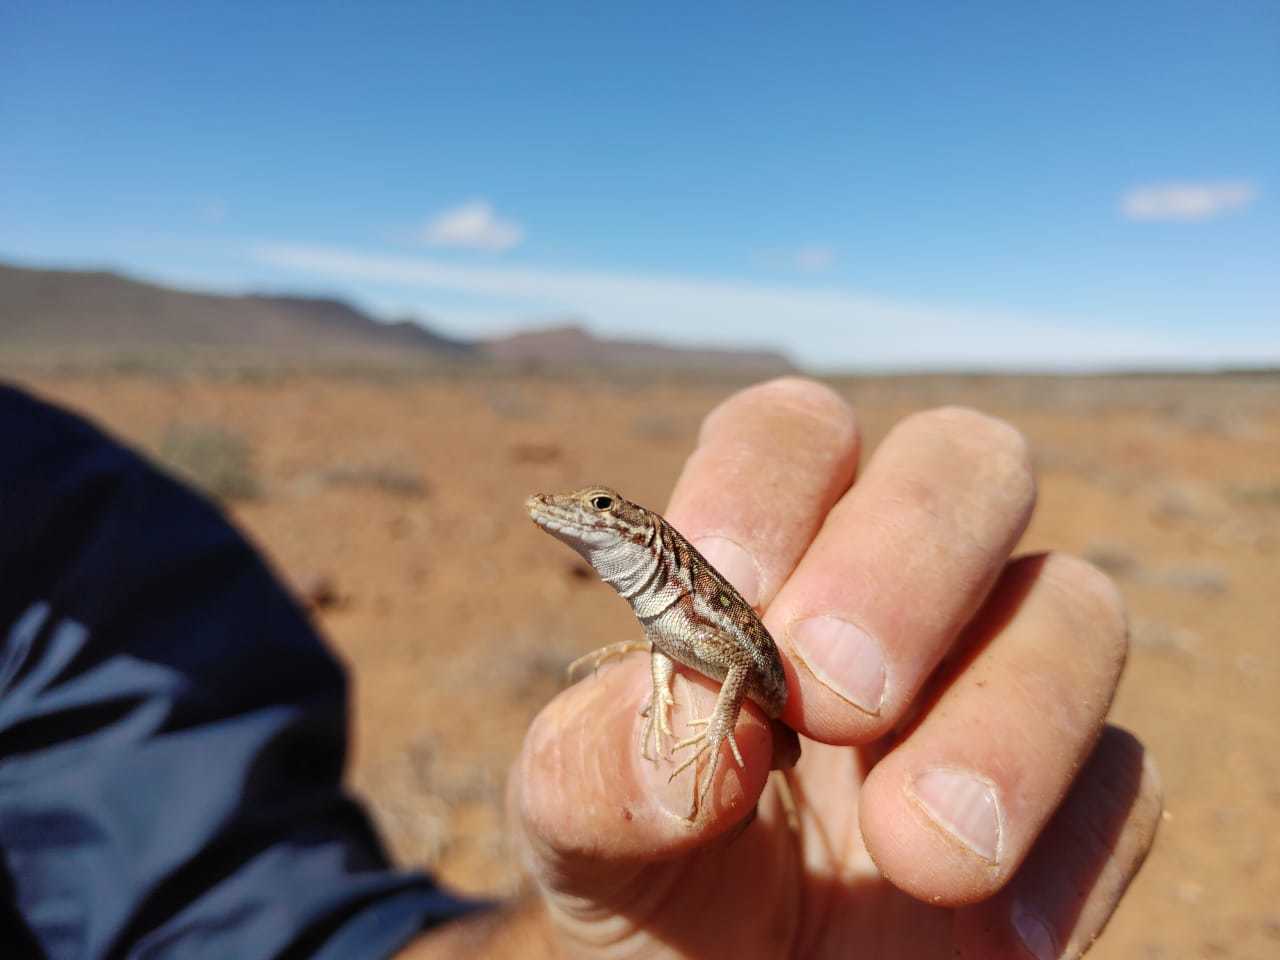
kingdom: Animalia
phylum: Chordata
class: Squamata
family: Lacertidae
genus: Pedioplanis
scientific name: Pedioplanis lineoocellata
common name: Spotted sand lizard
